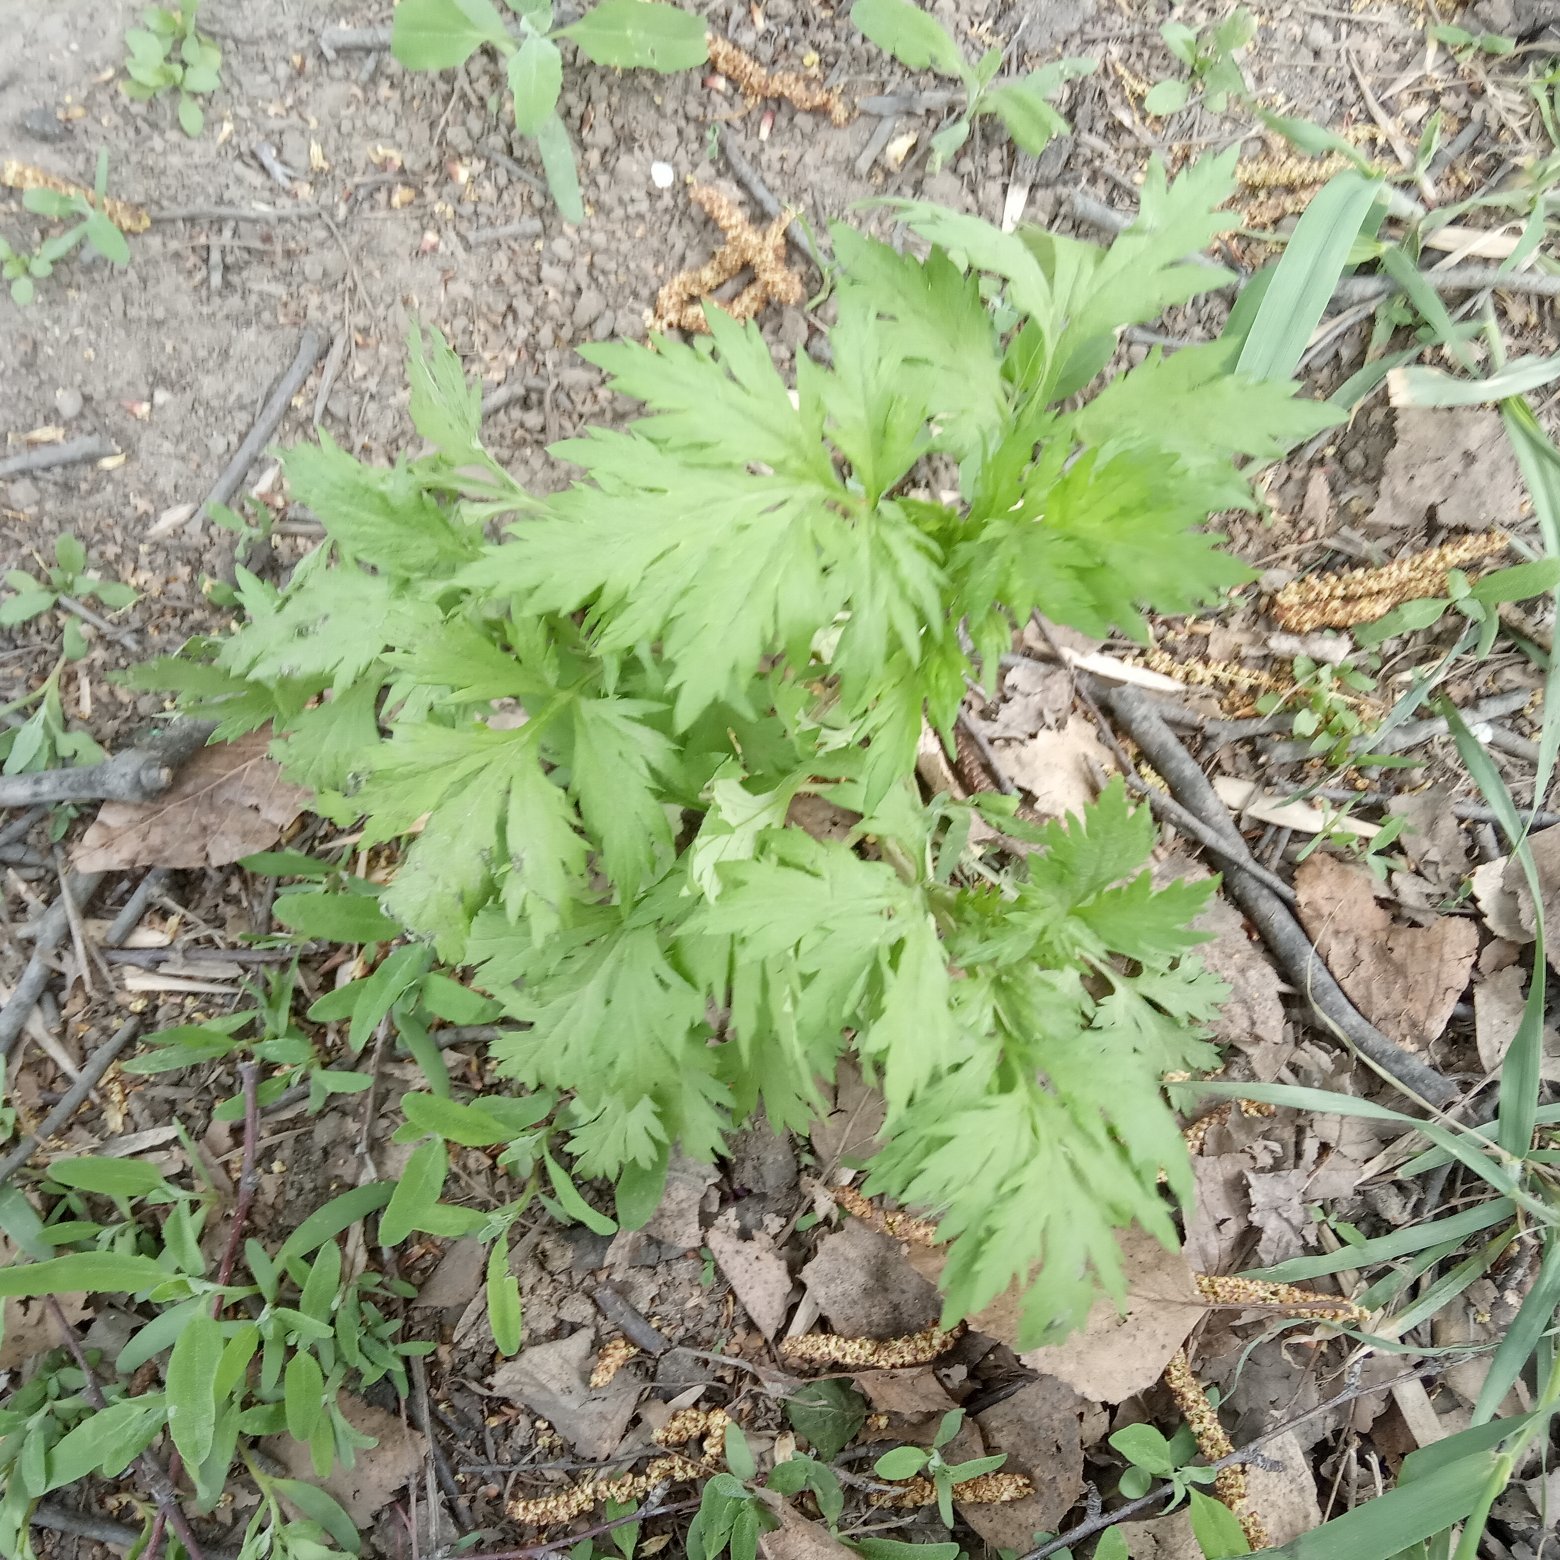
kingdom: Plantae
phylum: Tracheophyta
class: Magnoliopsida
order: Asterales
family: Asteraceae
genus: Artemisia
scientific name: Artemisia vulgaris
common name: Mugwort
